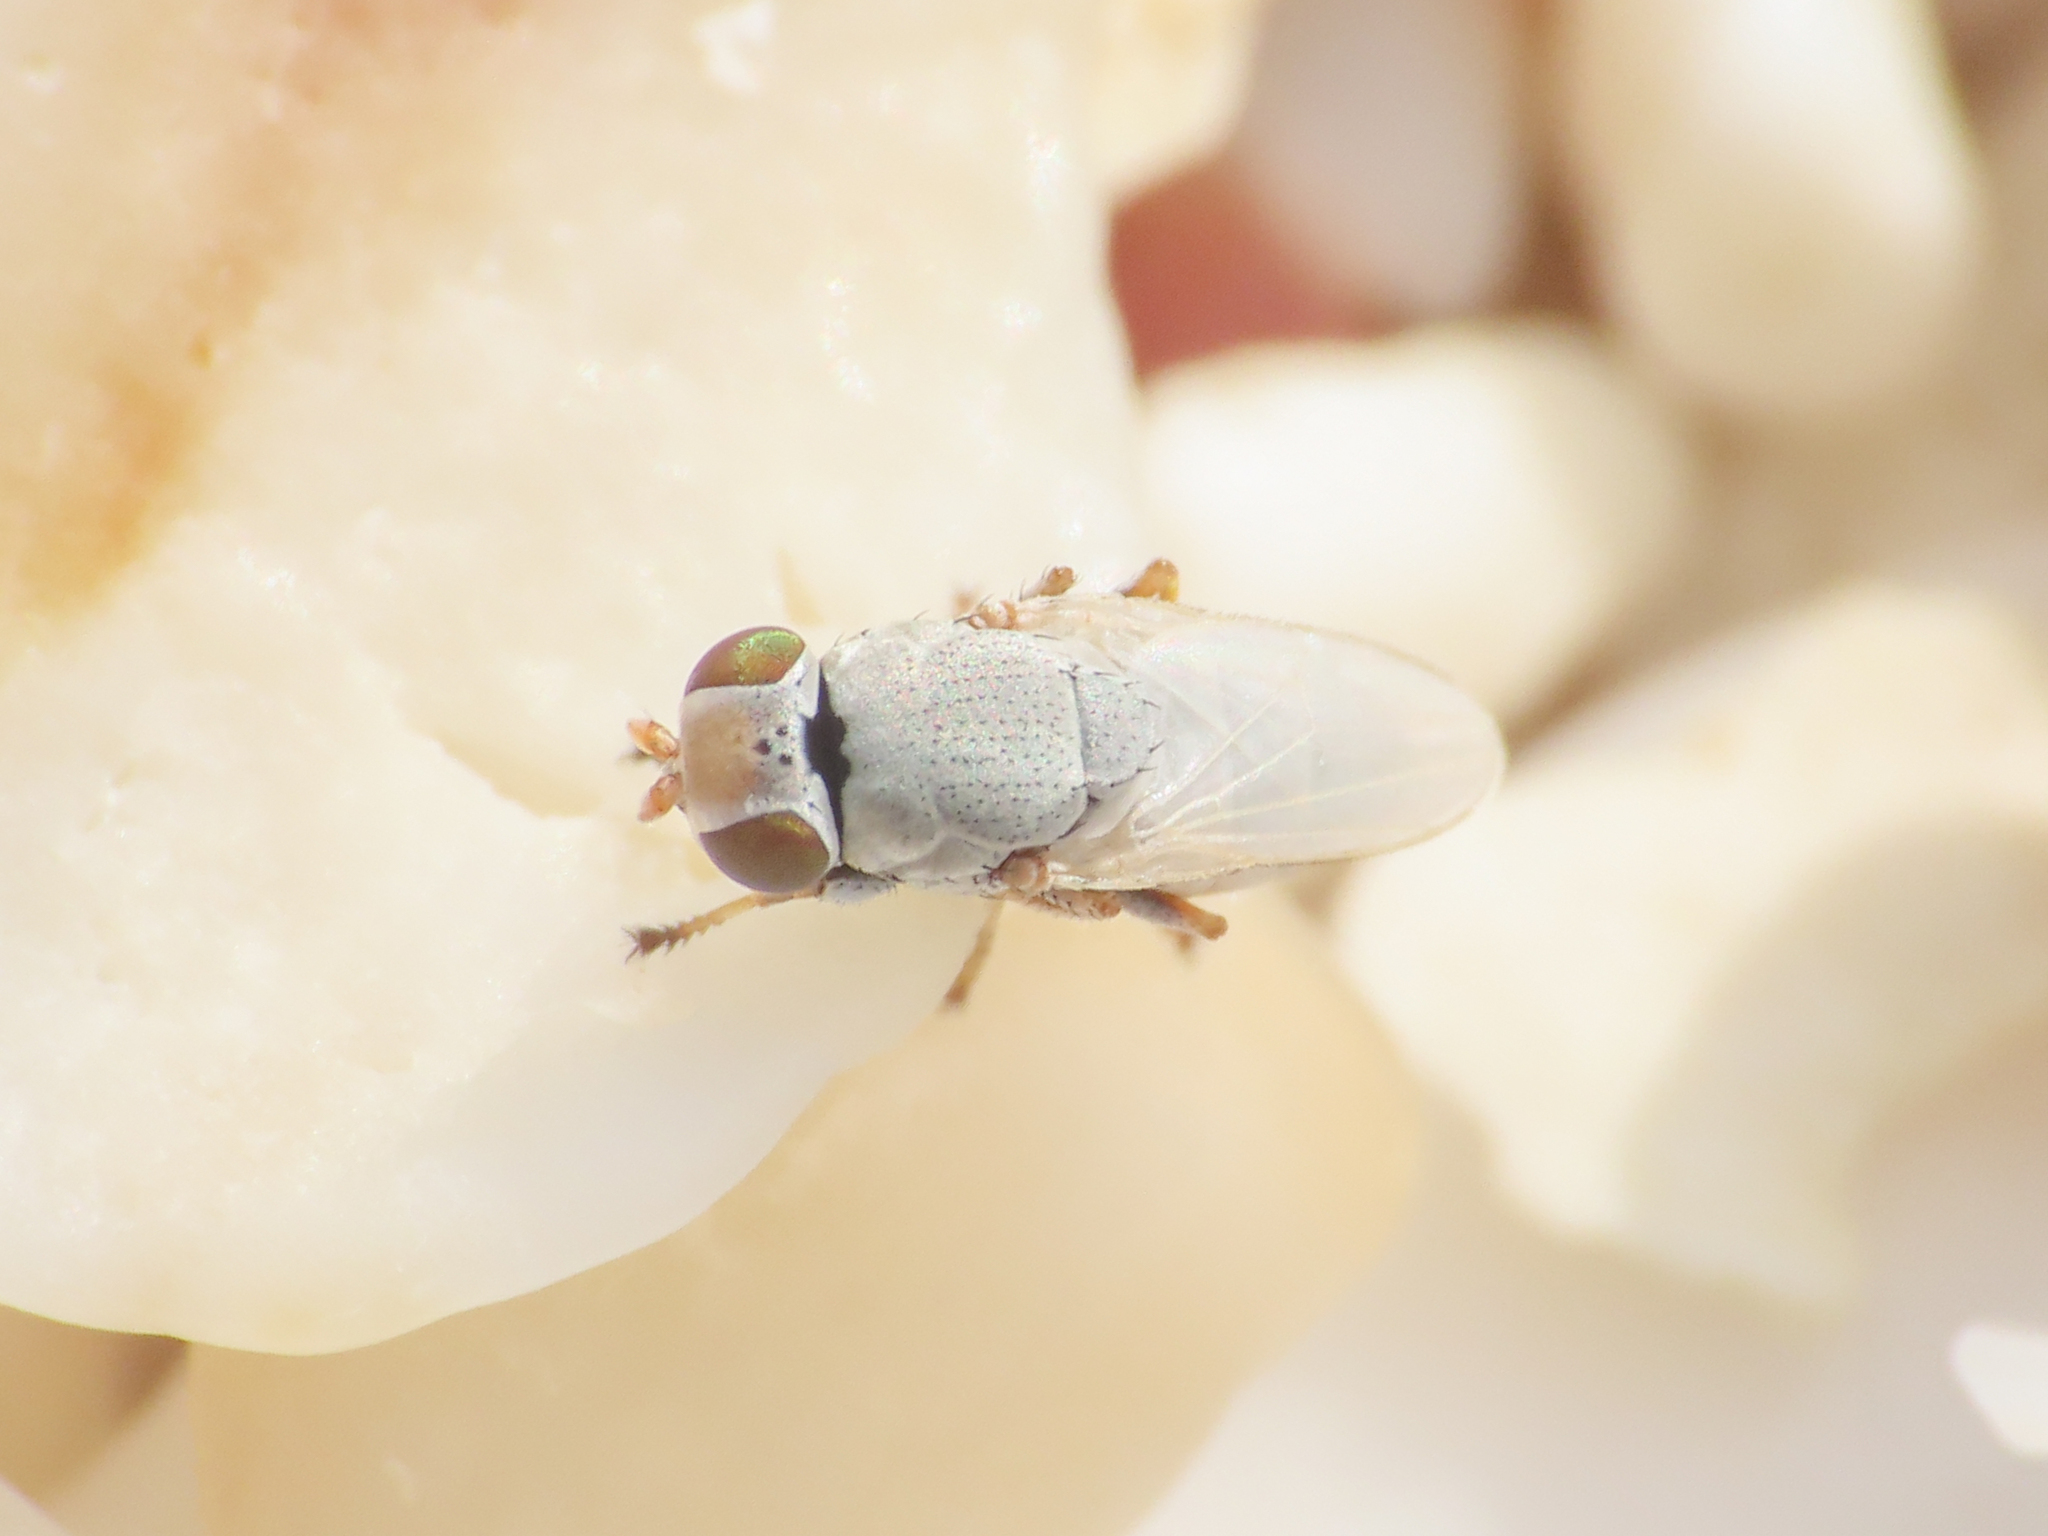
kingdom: Animalia
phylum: Arthropoda
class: Insecta
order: Diptera
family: Ephydridae
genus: Hecamede
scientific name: Hecamede nuda
